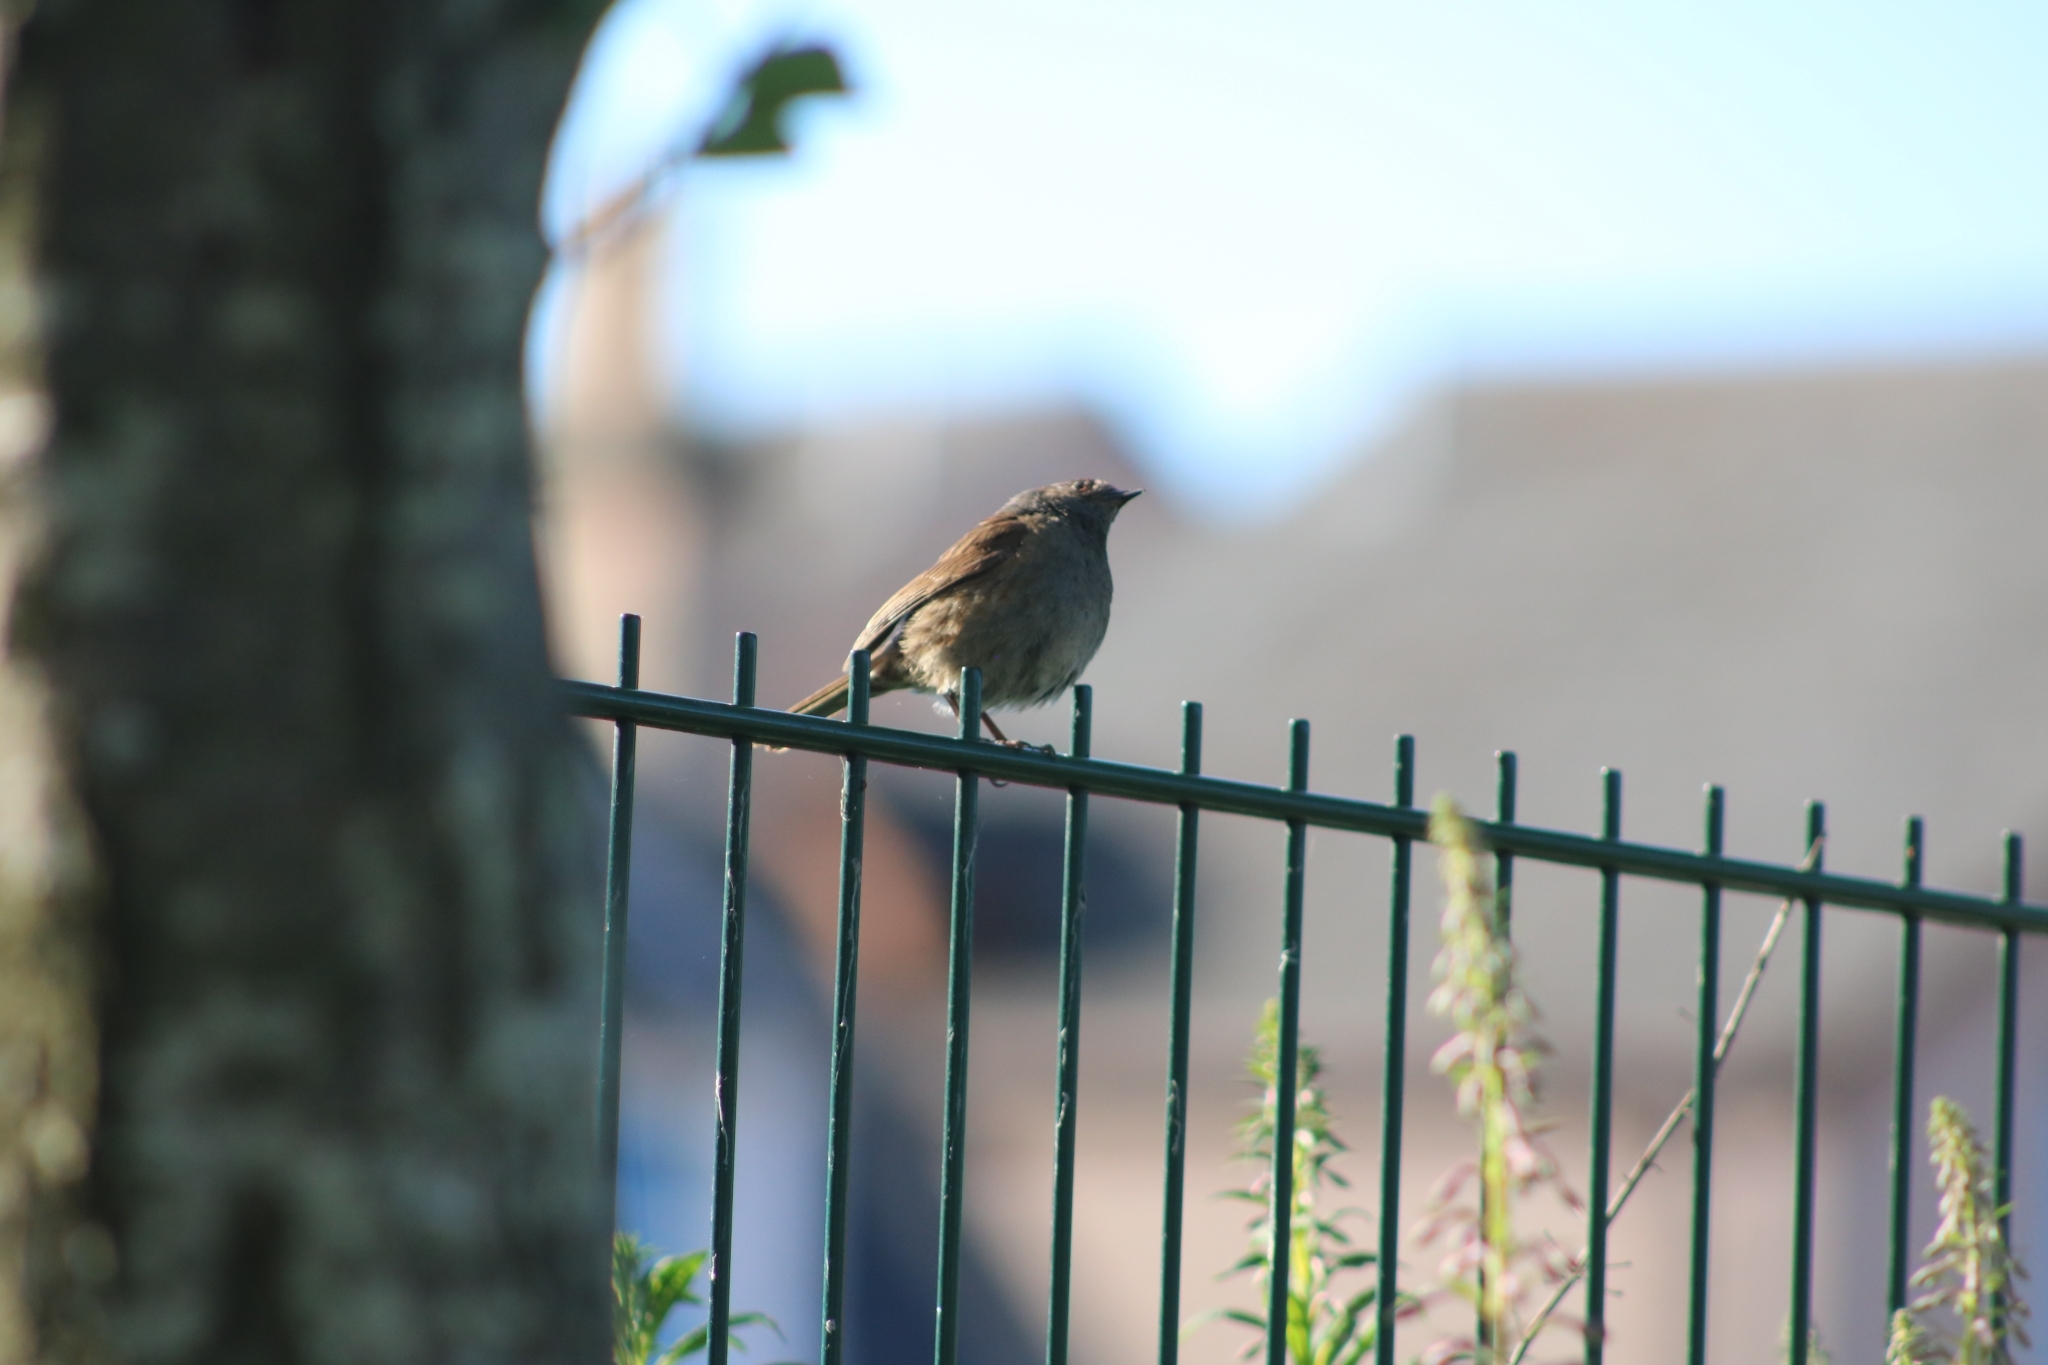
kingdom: Animalia
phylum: Chordata
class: Aves
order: Passeriformes
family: Prunellidae
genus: Prunella
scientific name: Prunella modularis
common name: Dunnock
